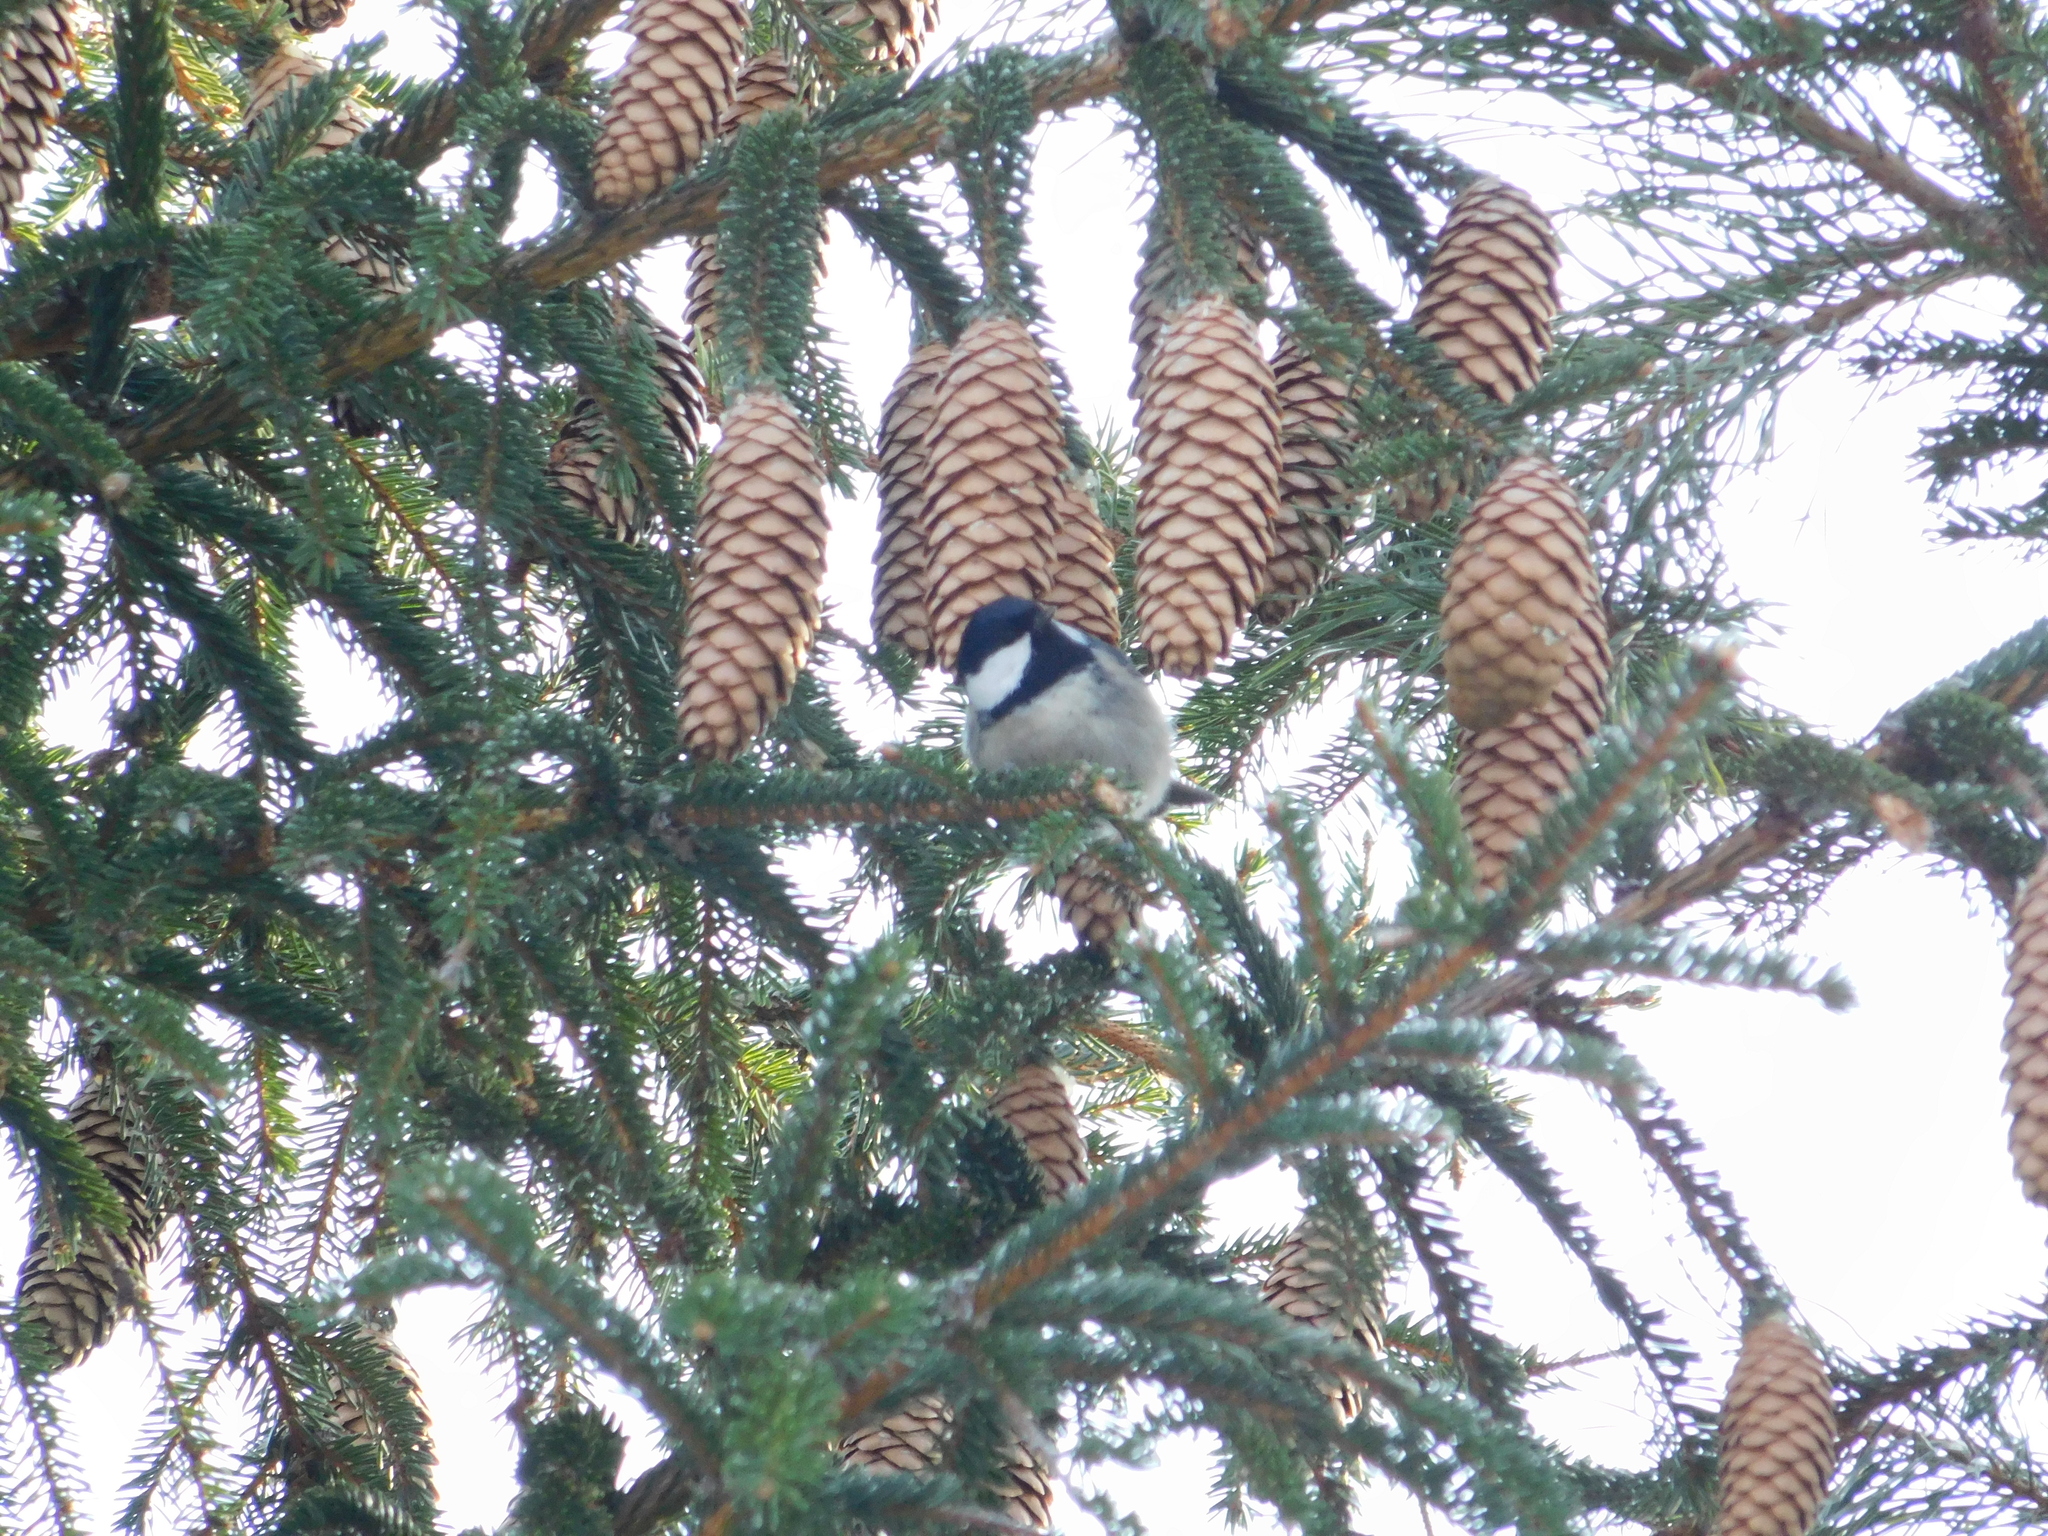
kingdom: Animalia
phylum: Chordata
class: Aves
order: Passeriformes
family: Paridae
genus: Periparus
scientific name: Periparus ater
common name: Coal tit
